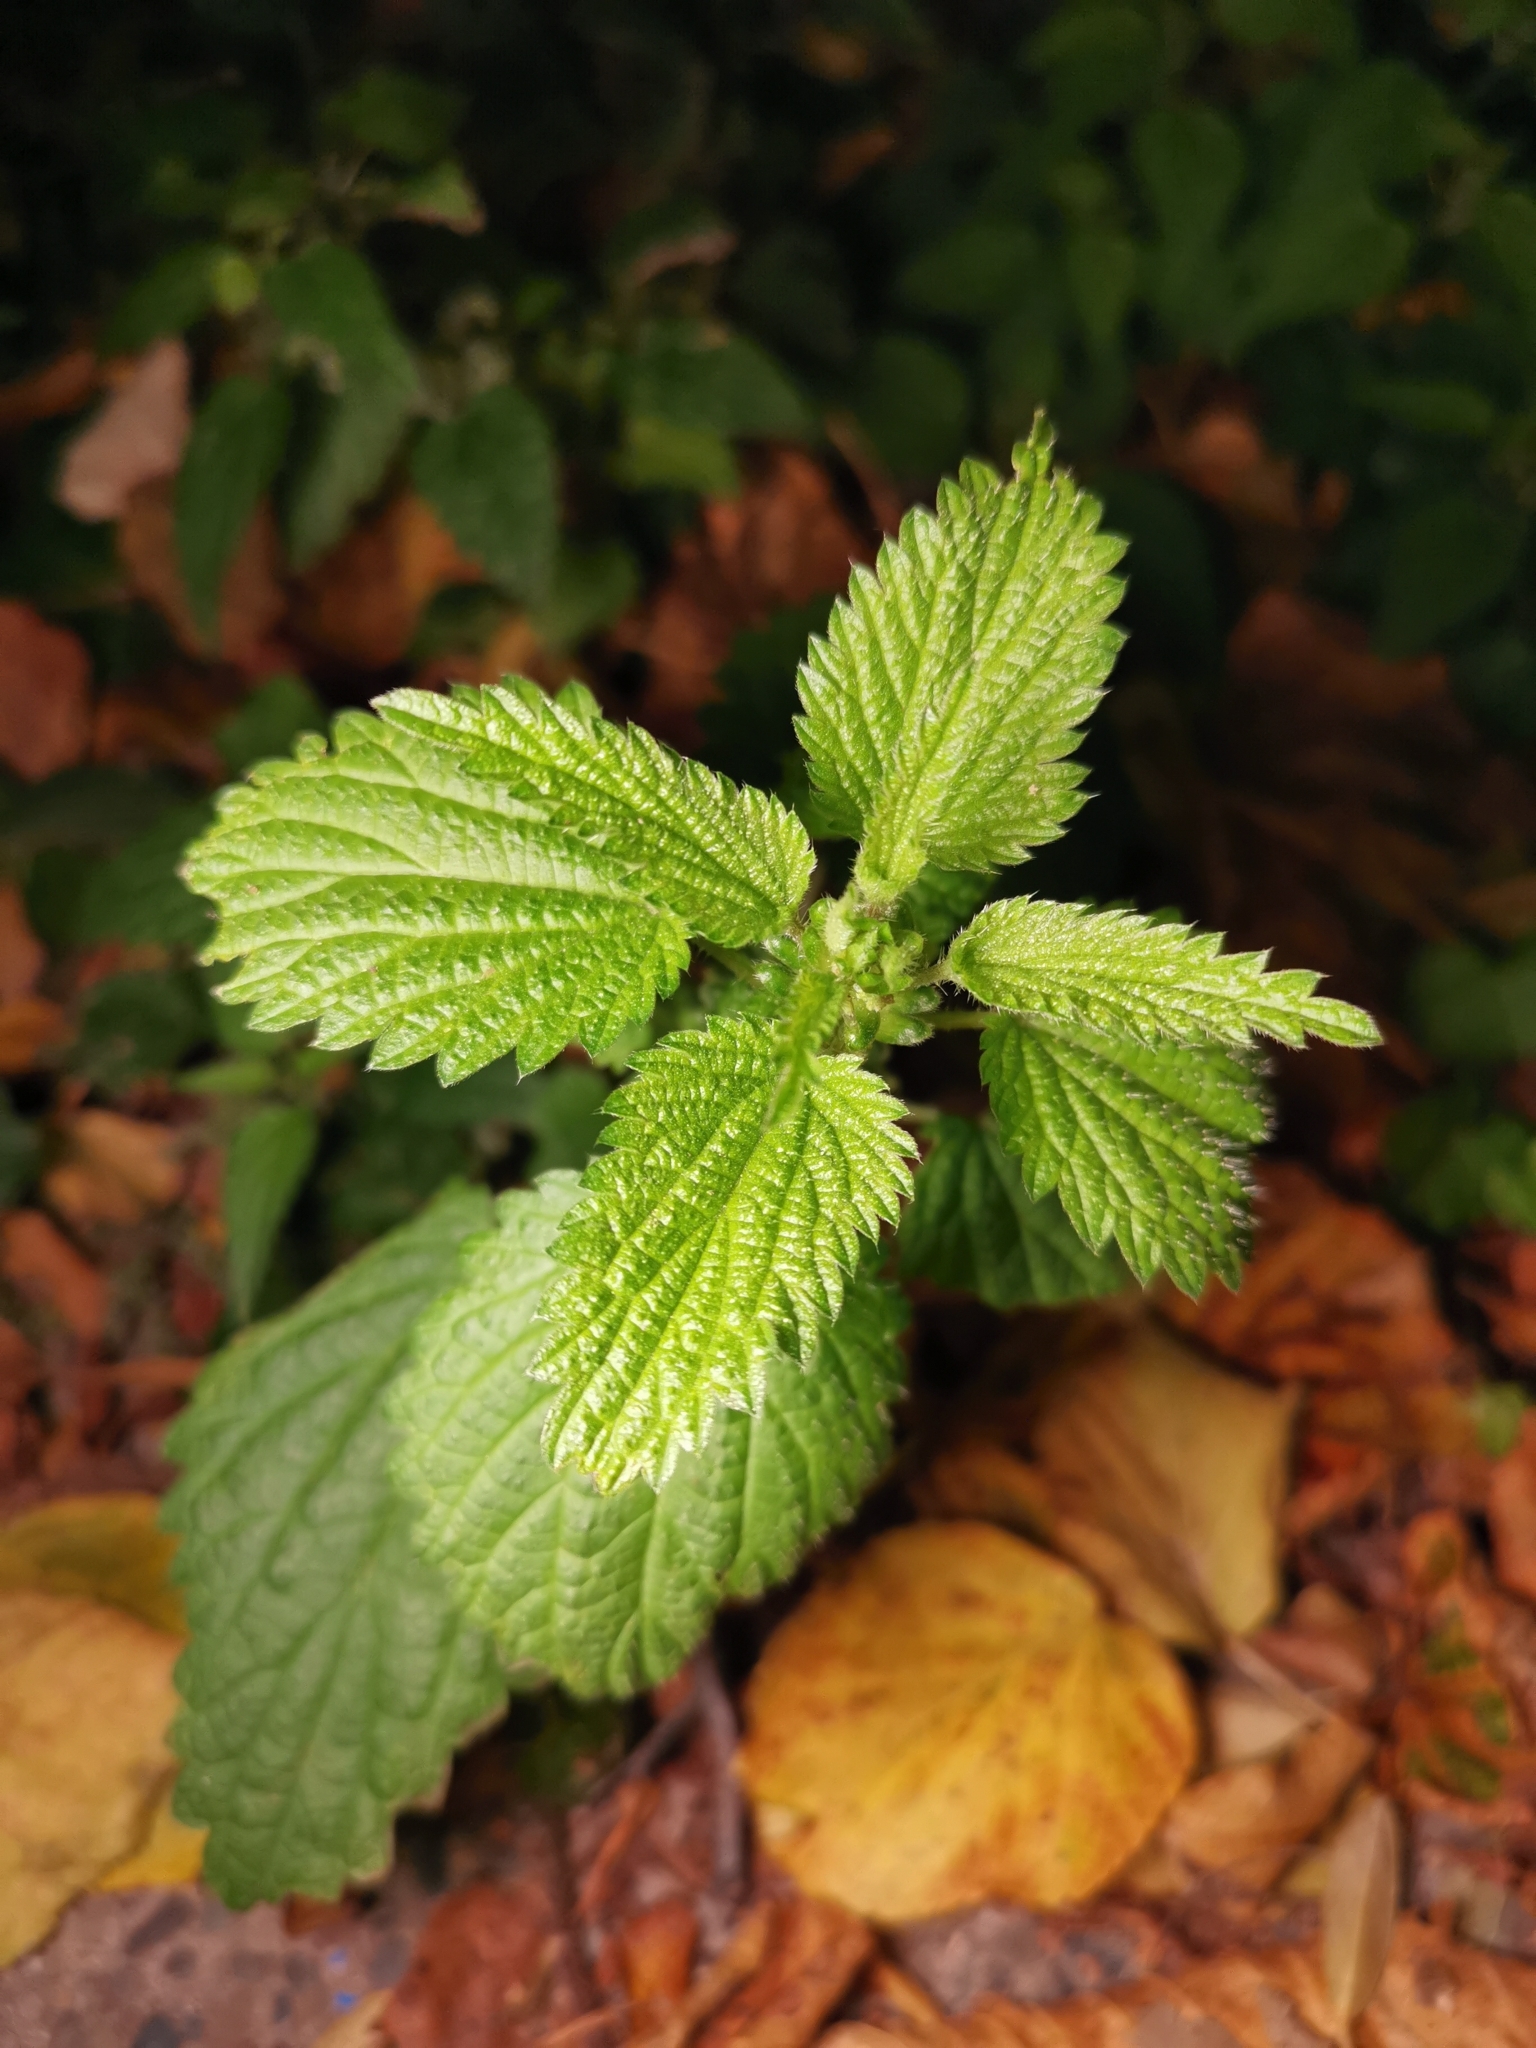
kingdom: Plantae
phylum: Tracheophyta
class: Magnoliopsida
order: Rosales
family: Urticaceae
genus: Urtica
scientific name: Urtica dioica
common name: Common nettle
